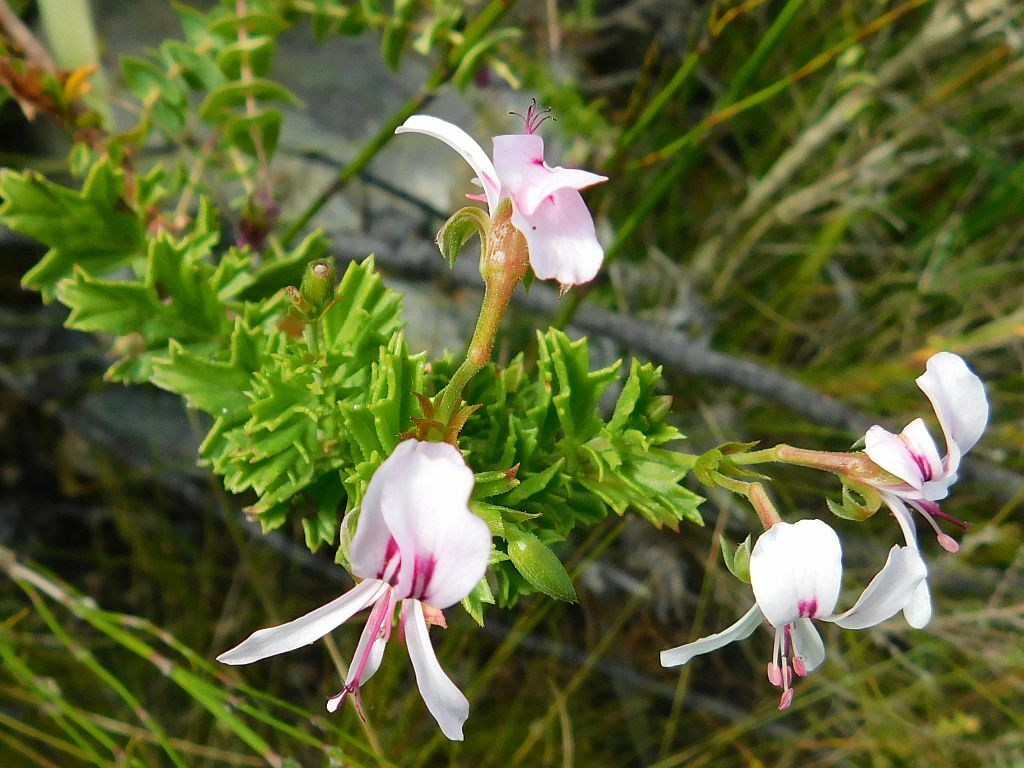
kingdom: Plantae
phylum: Tracheophyta
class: Magnoliopsida
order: Geraniales
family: Geraniaceae
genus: Pelargonium
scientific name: Pelargonium hermaniifolium
